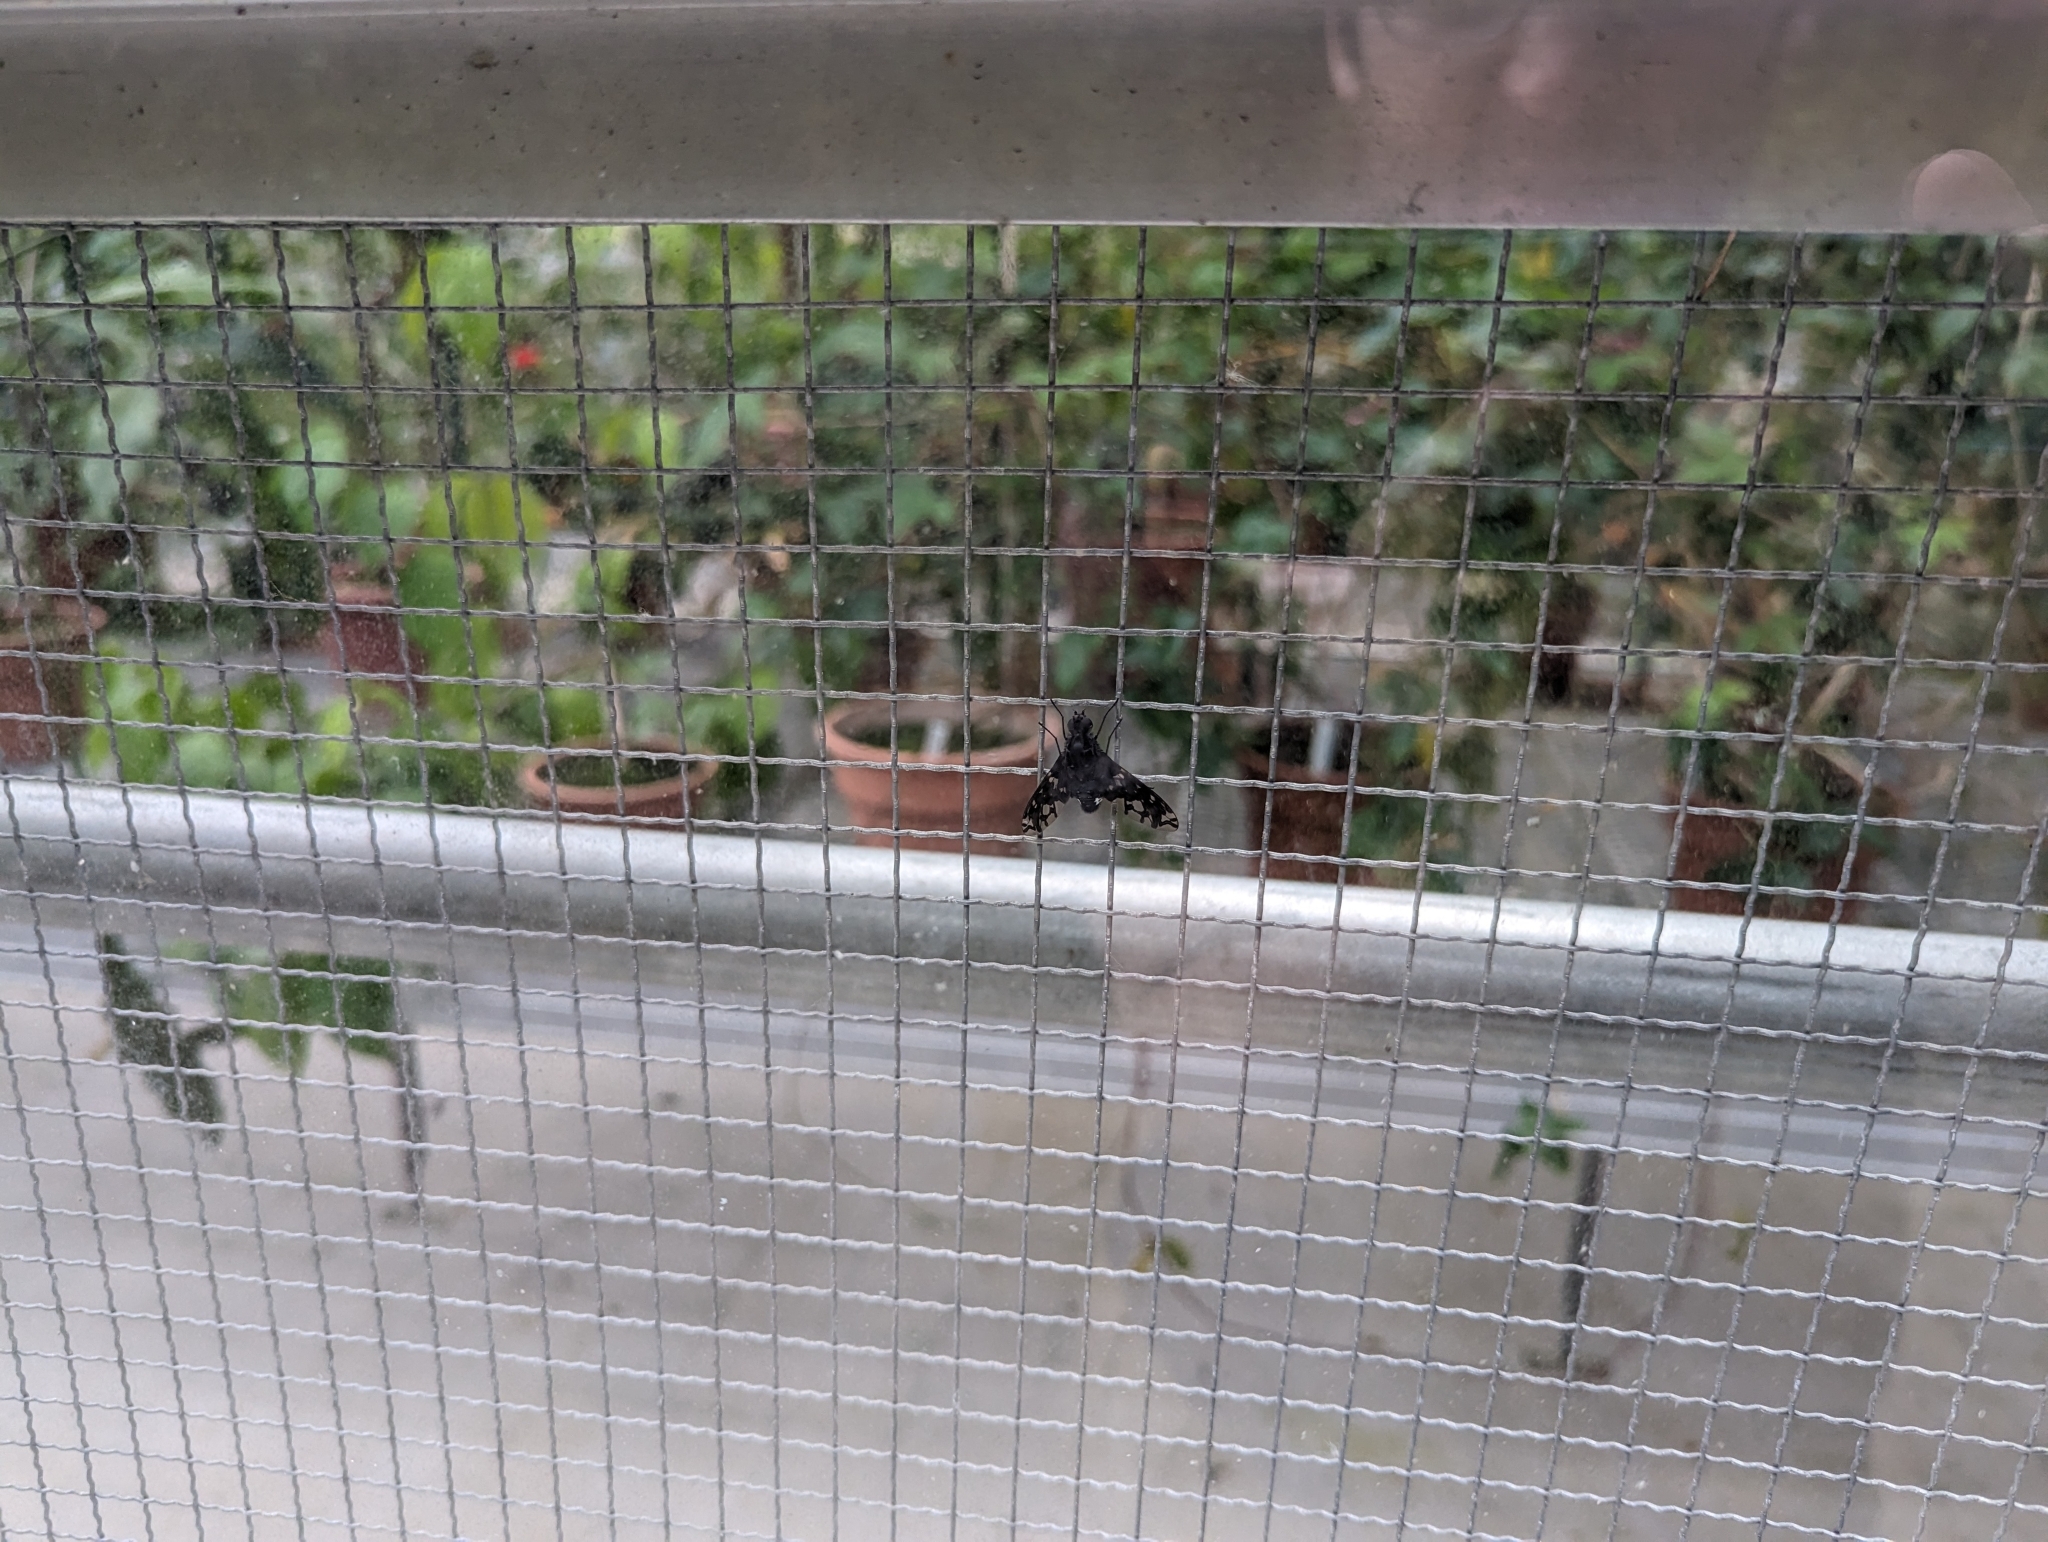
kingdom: Animalia
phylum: Arthropoda
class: Insecta
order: Diptera
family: Bombyliidae
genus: Xenox
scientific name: Xenox tigrinus
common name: Tiger bee fly
